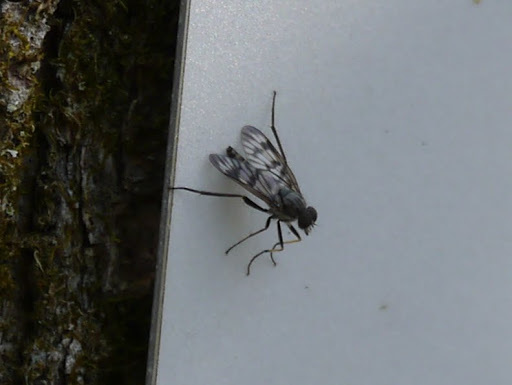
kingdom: Animalia
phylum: Arthropoda
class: Insecta
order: Diptera
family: Rhagionidae
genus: Rhagio
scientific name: Rhagio mystaceus
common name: Common snipe fly
